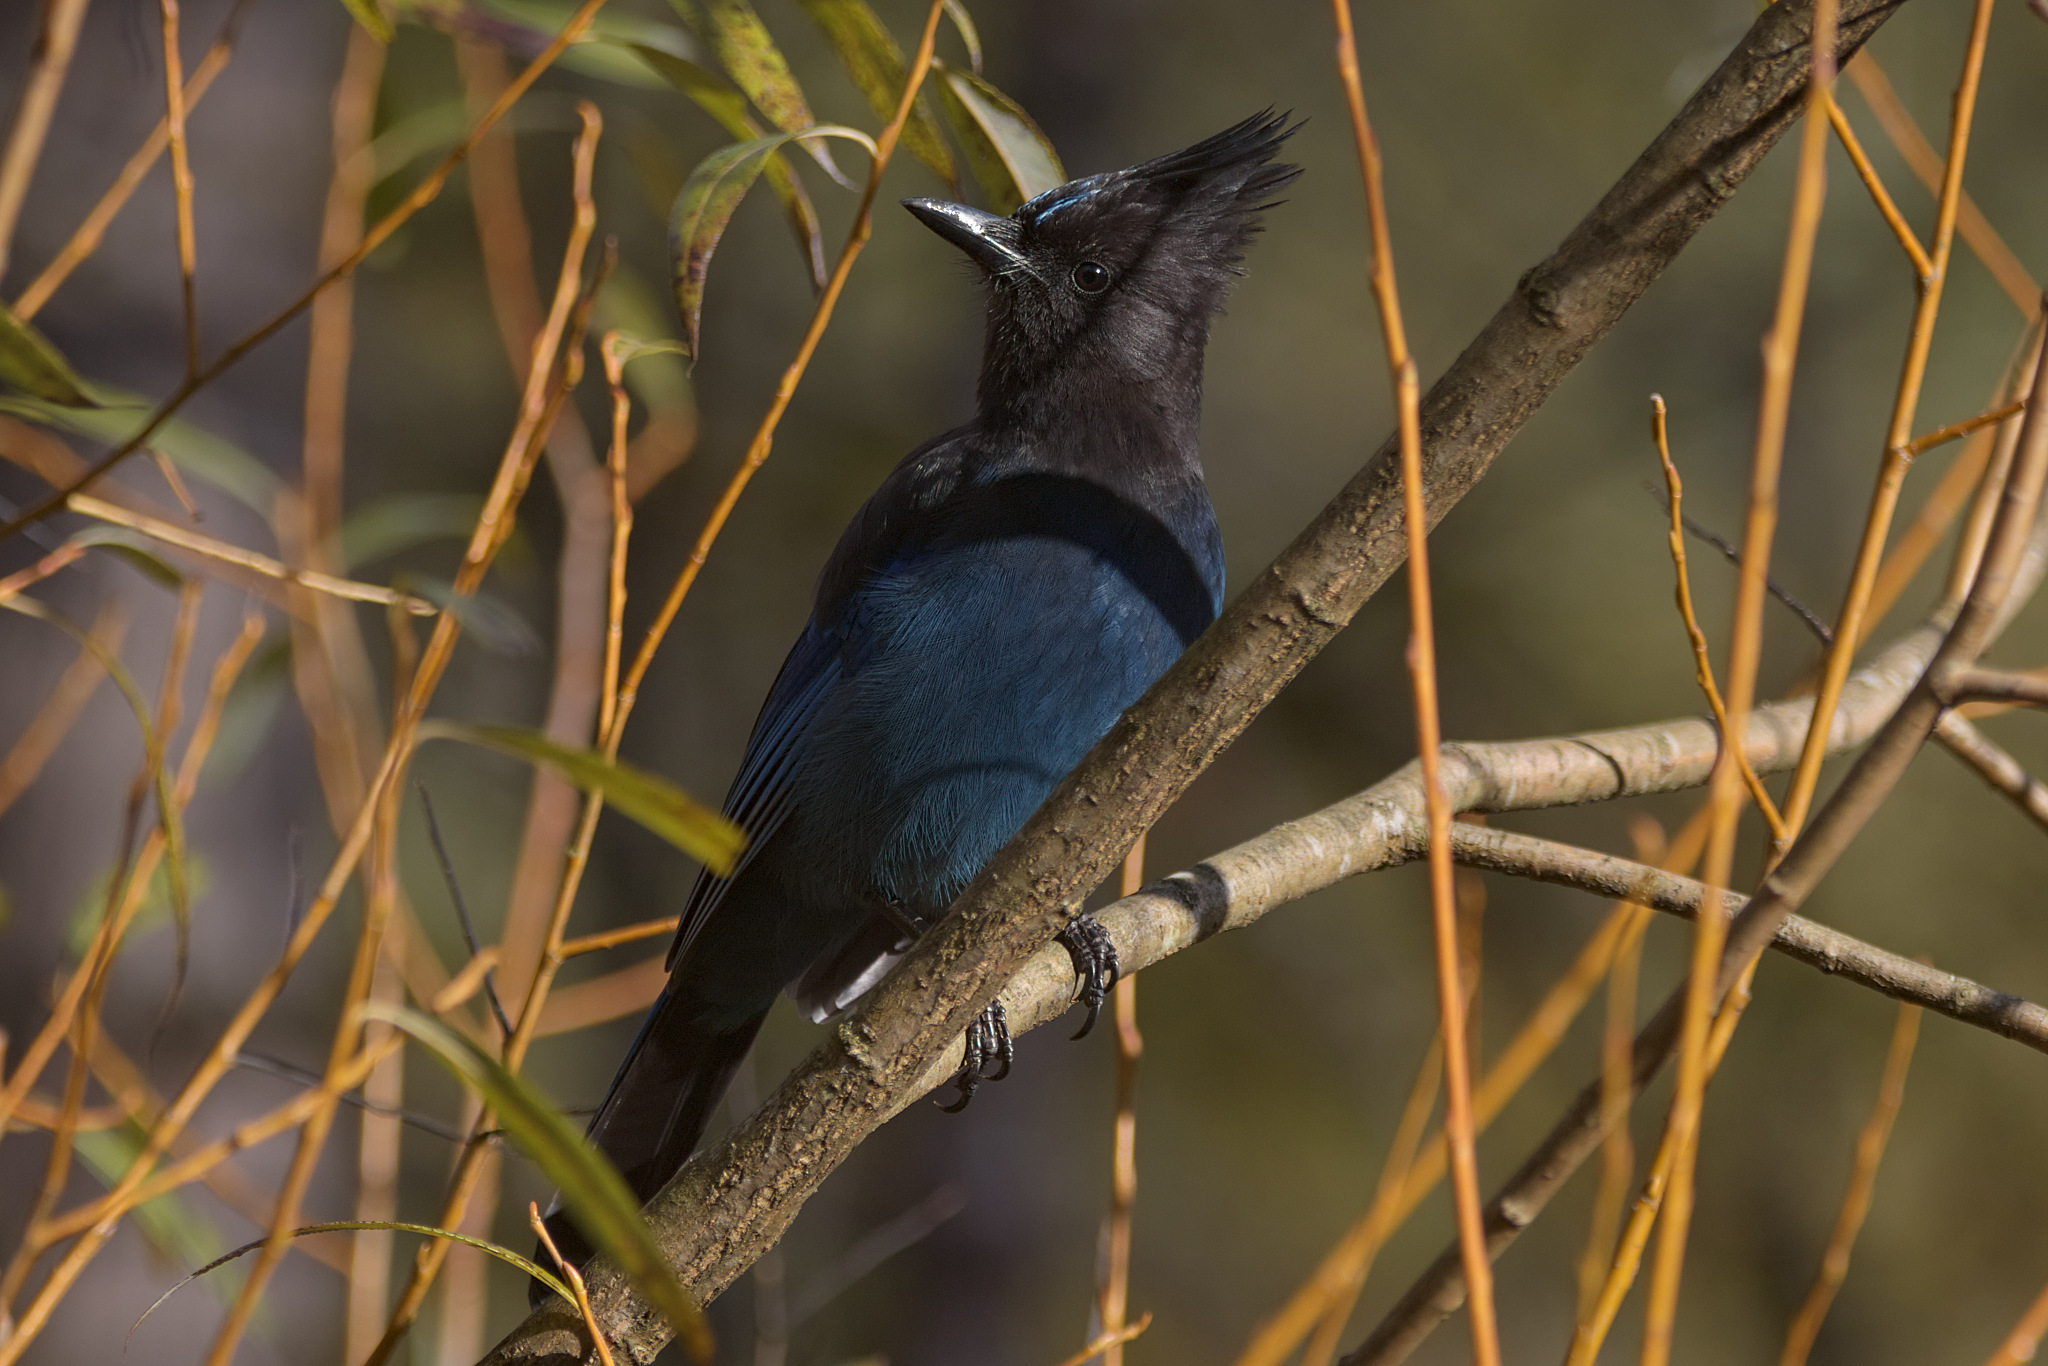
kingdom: Animalia
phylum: Chordata
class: Aves
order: Passeriformes
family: Corvidae
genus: Cyanocitta
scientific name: Cyanocitta stelleri
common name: Steller's jay
